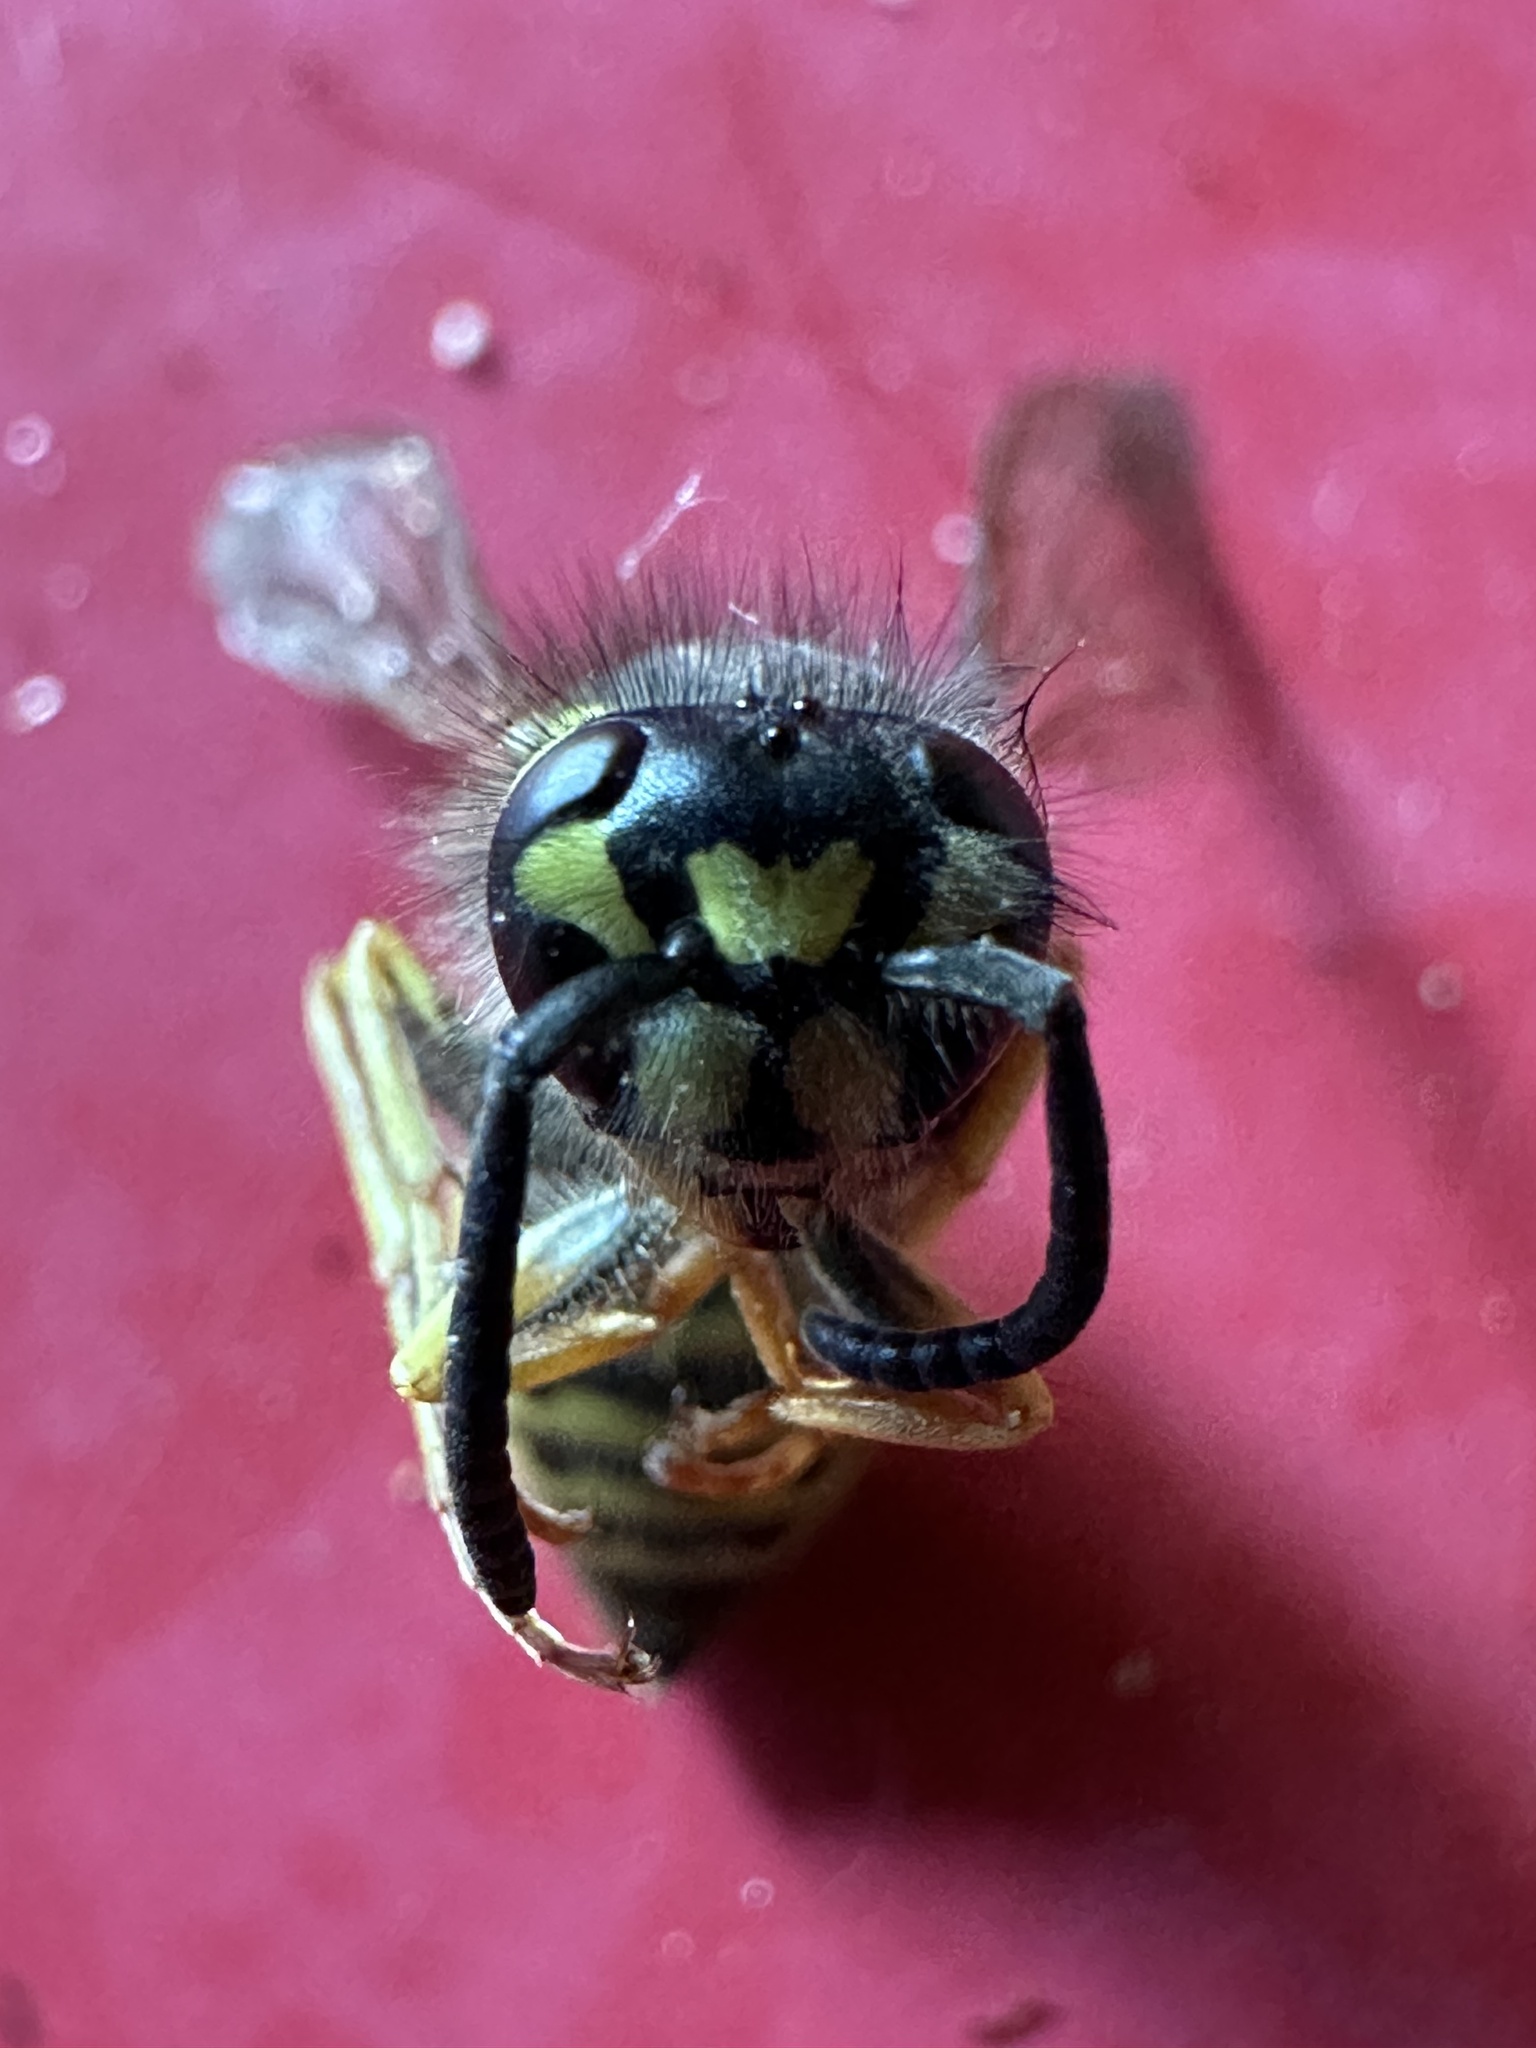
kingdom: Animalia
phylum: Arthropoda
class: Insecta
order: Hymenoptera
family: Vespidae
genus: Vespula
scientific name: Vespula vulgaris
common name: Common wasp
